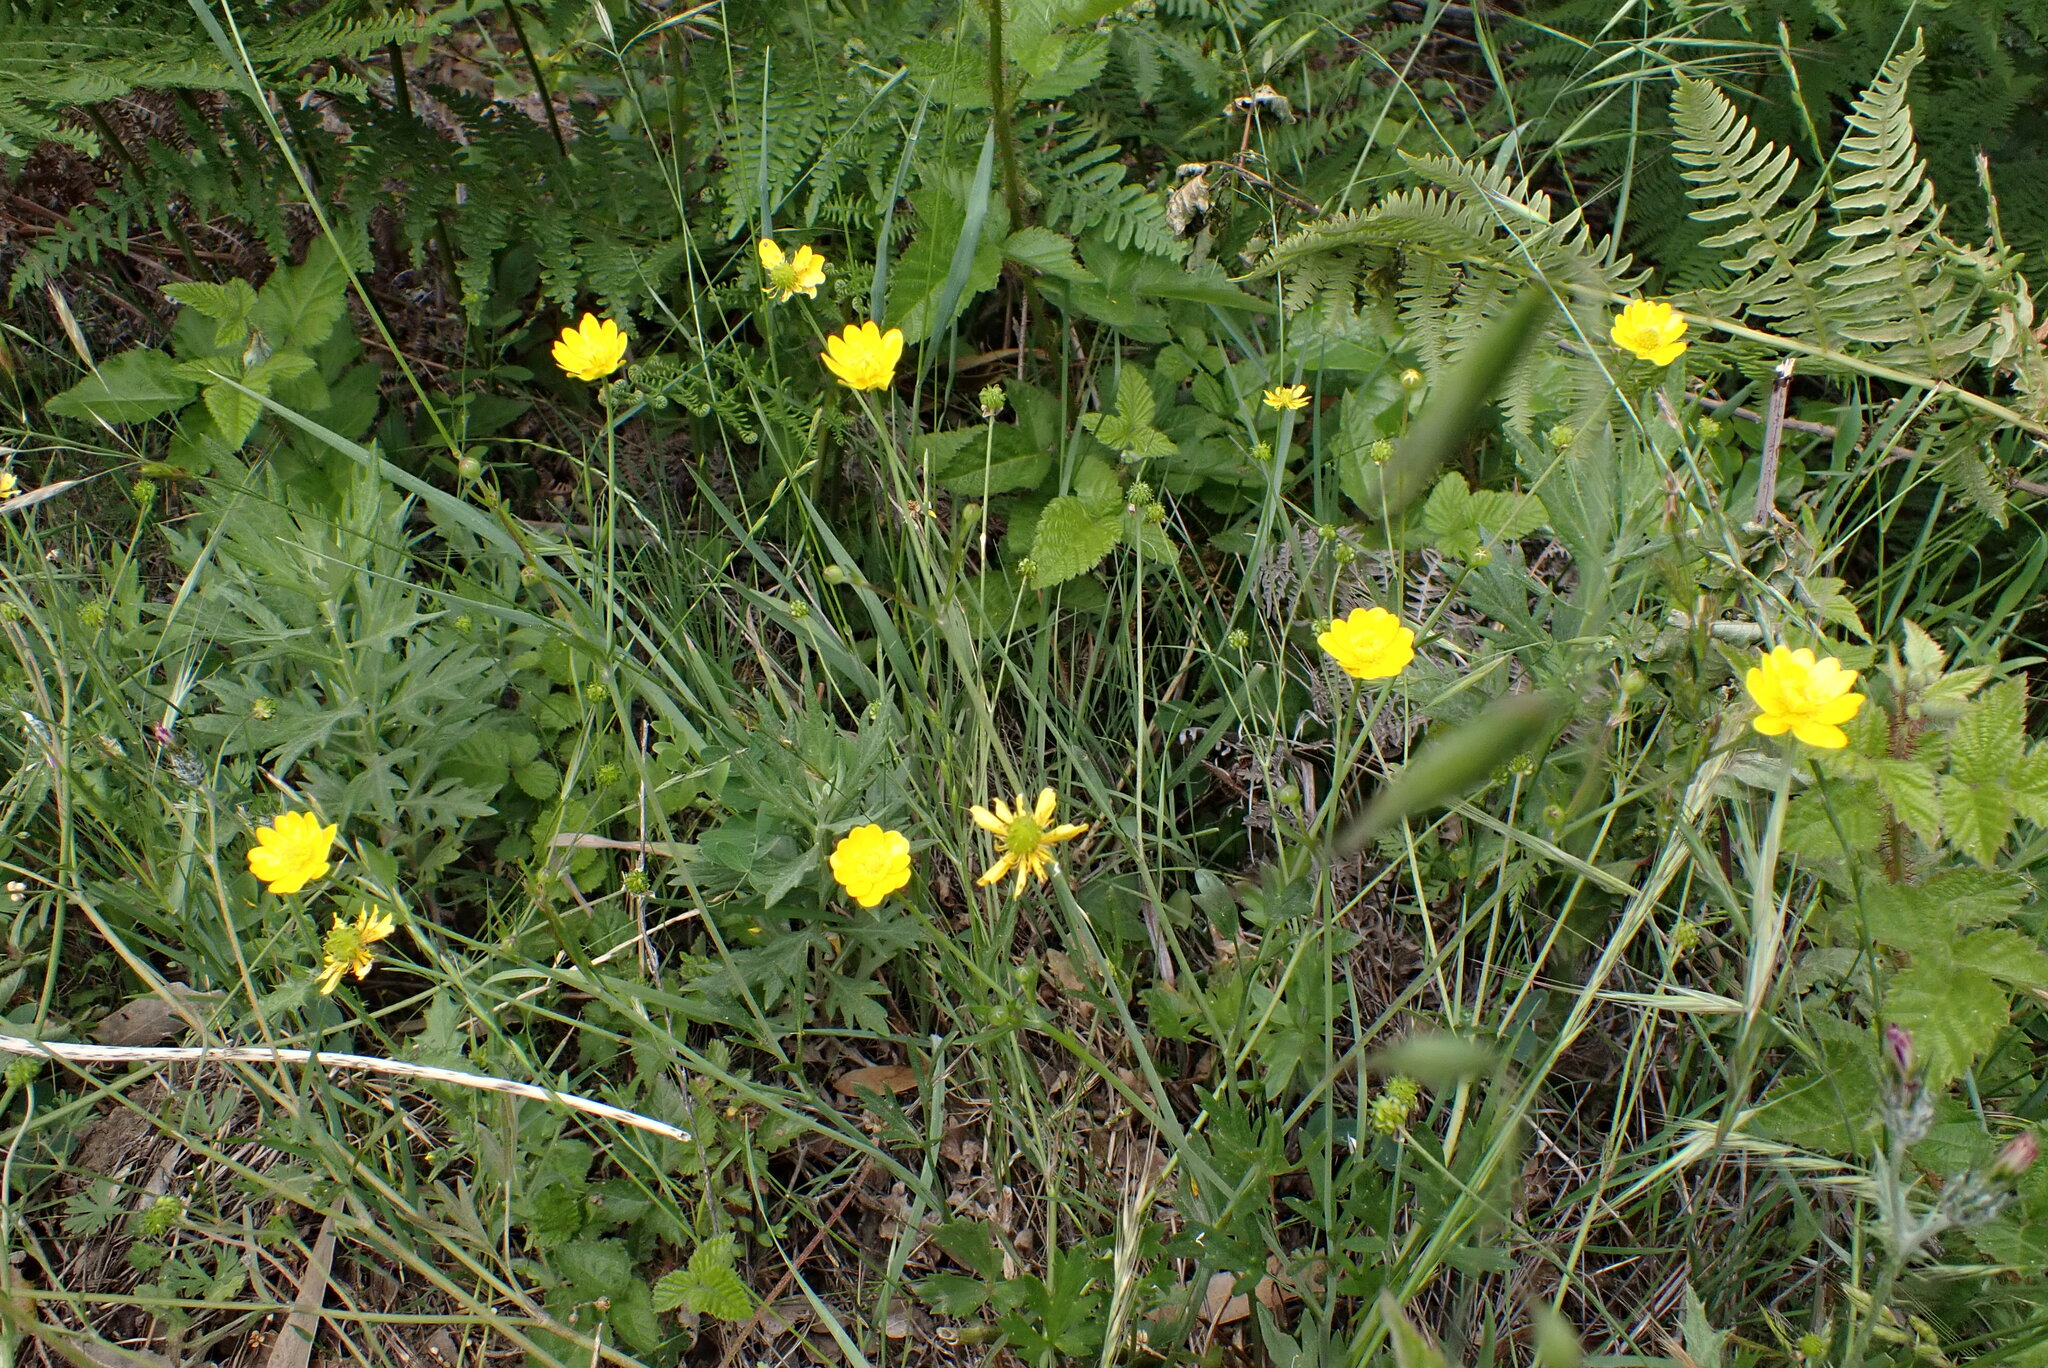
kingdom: Plantae
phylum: Tracheophyta
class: Magnoliopsida
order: Ranunculales
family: Ranunculaceae
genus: Ranunculus
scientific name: Ranunculus californicus
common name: California buttercup
